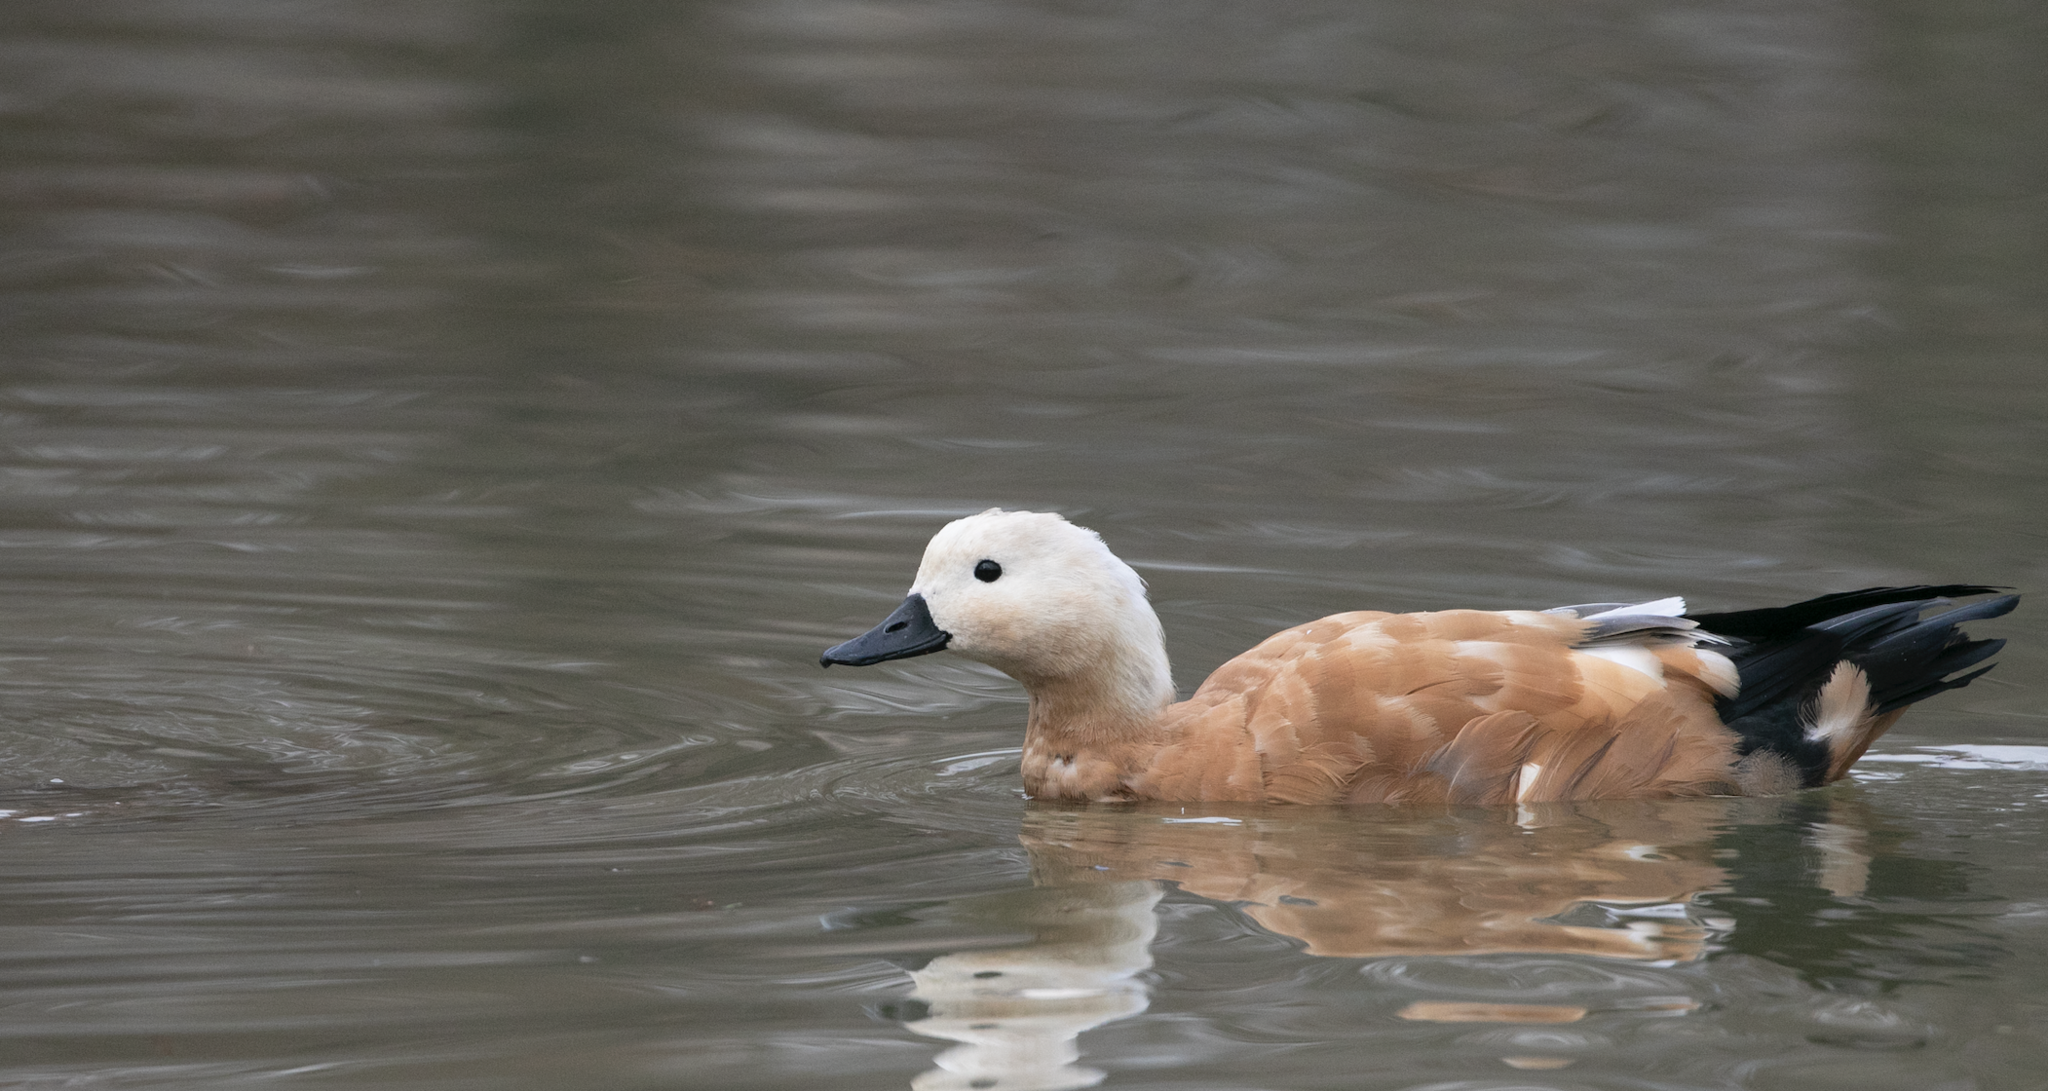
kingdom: Animalia
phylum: Chordata
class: Aves
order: Anseriformes
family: Anatidae
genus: Tadorna
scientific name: Tadorna ferruginea
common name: Ruddy shelduck
